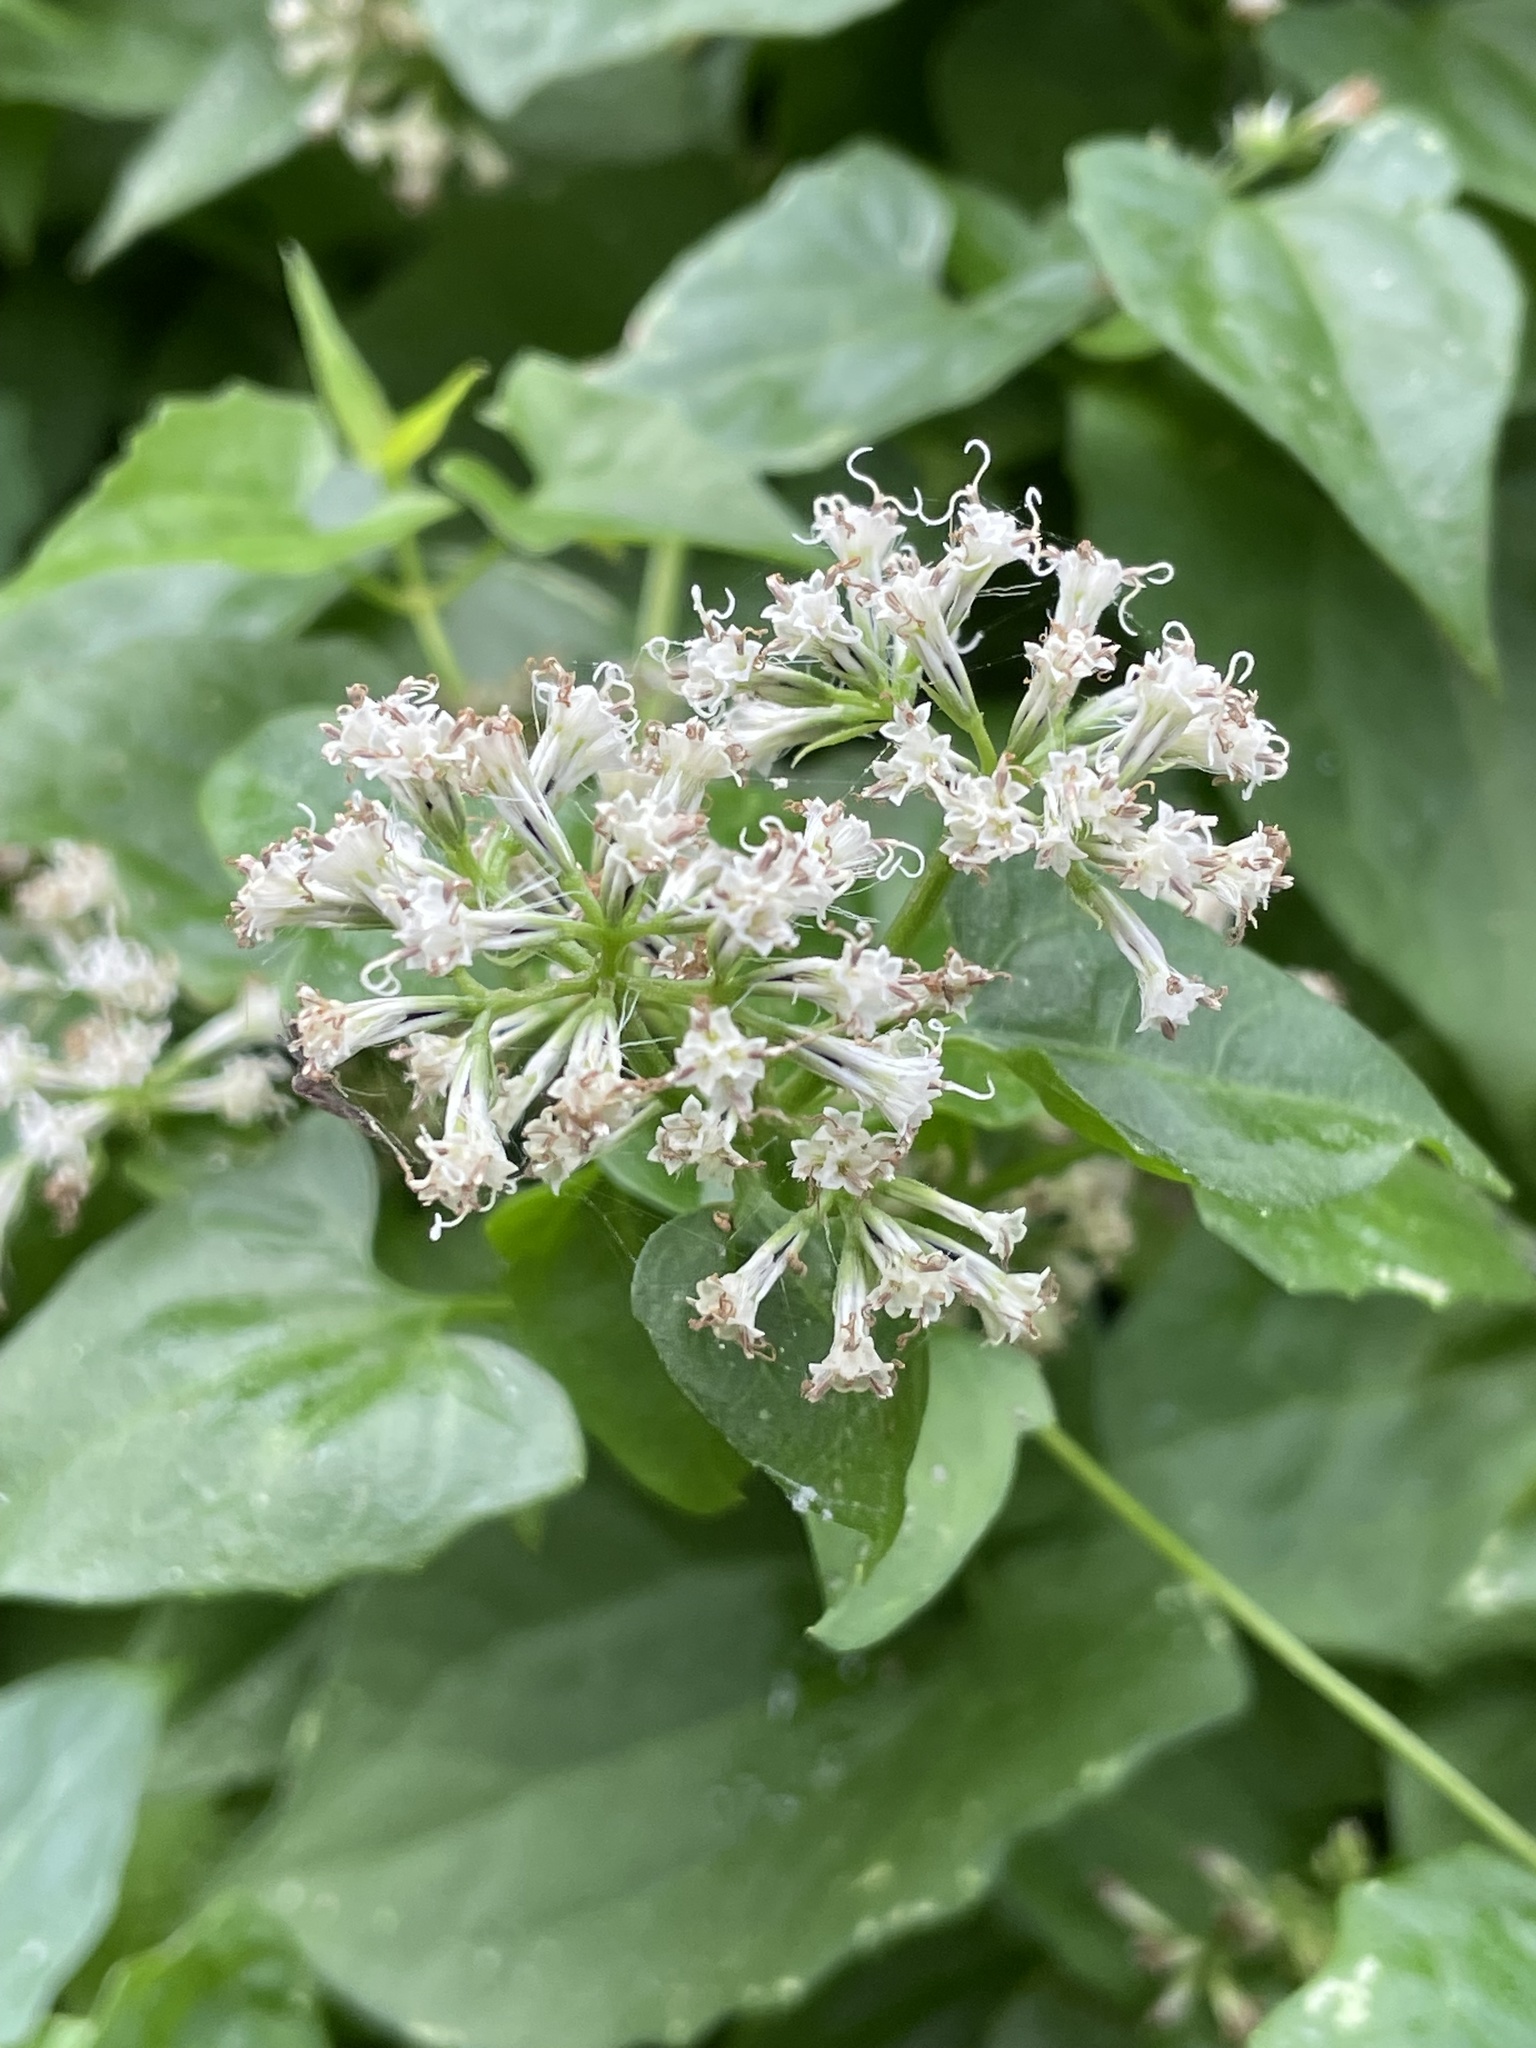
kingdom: Plantae
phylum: Tracheophyta
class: Magnoliopsida
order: Asterales
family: Asteraceae
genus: Mikania
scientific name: Mikania scandens
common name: Climbing hempvine
